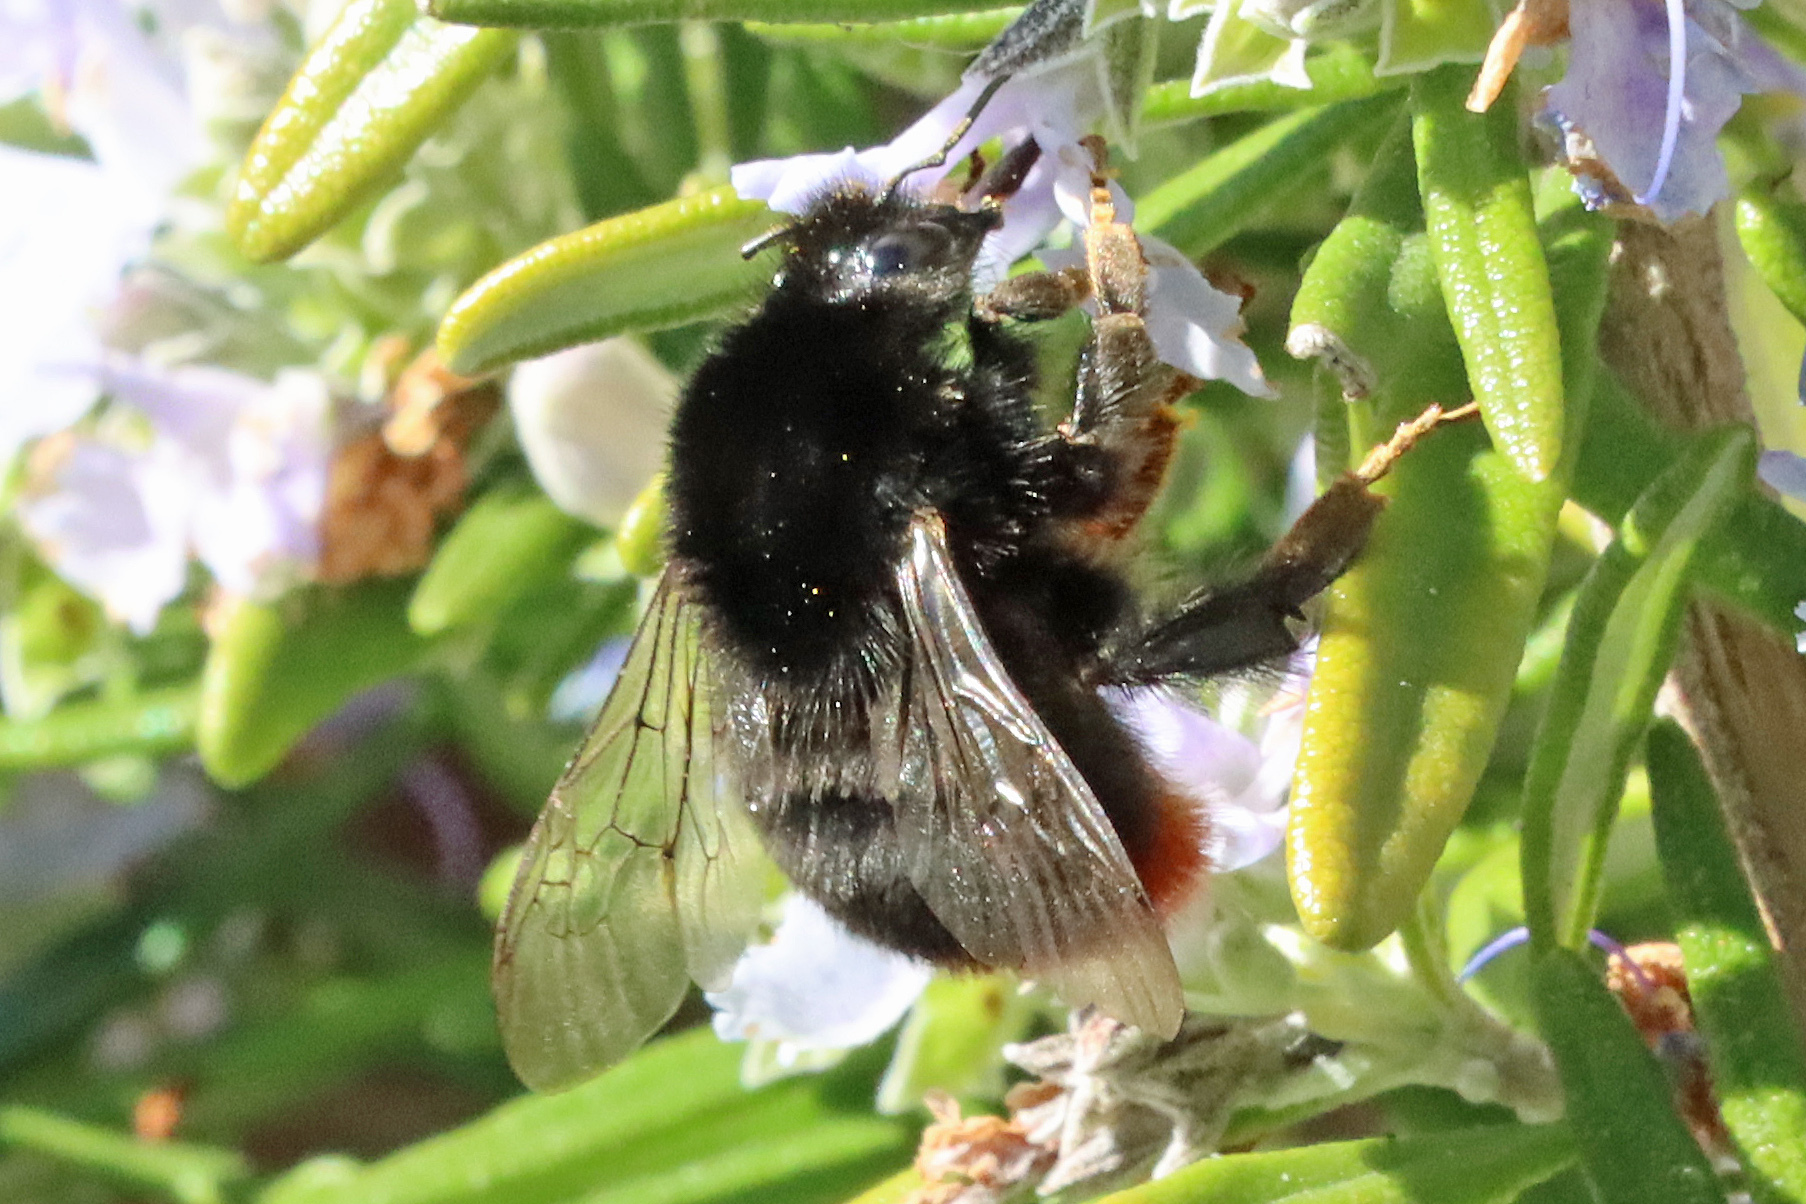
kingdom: Animalia
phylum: Arthropoda
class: Insecta
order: Hymenoptera
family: Apidae
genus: Bombus
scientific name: Bombus lapidarius
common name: Large red-tailed humble-bee
